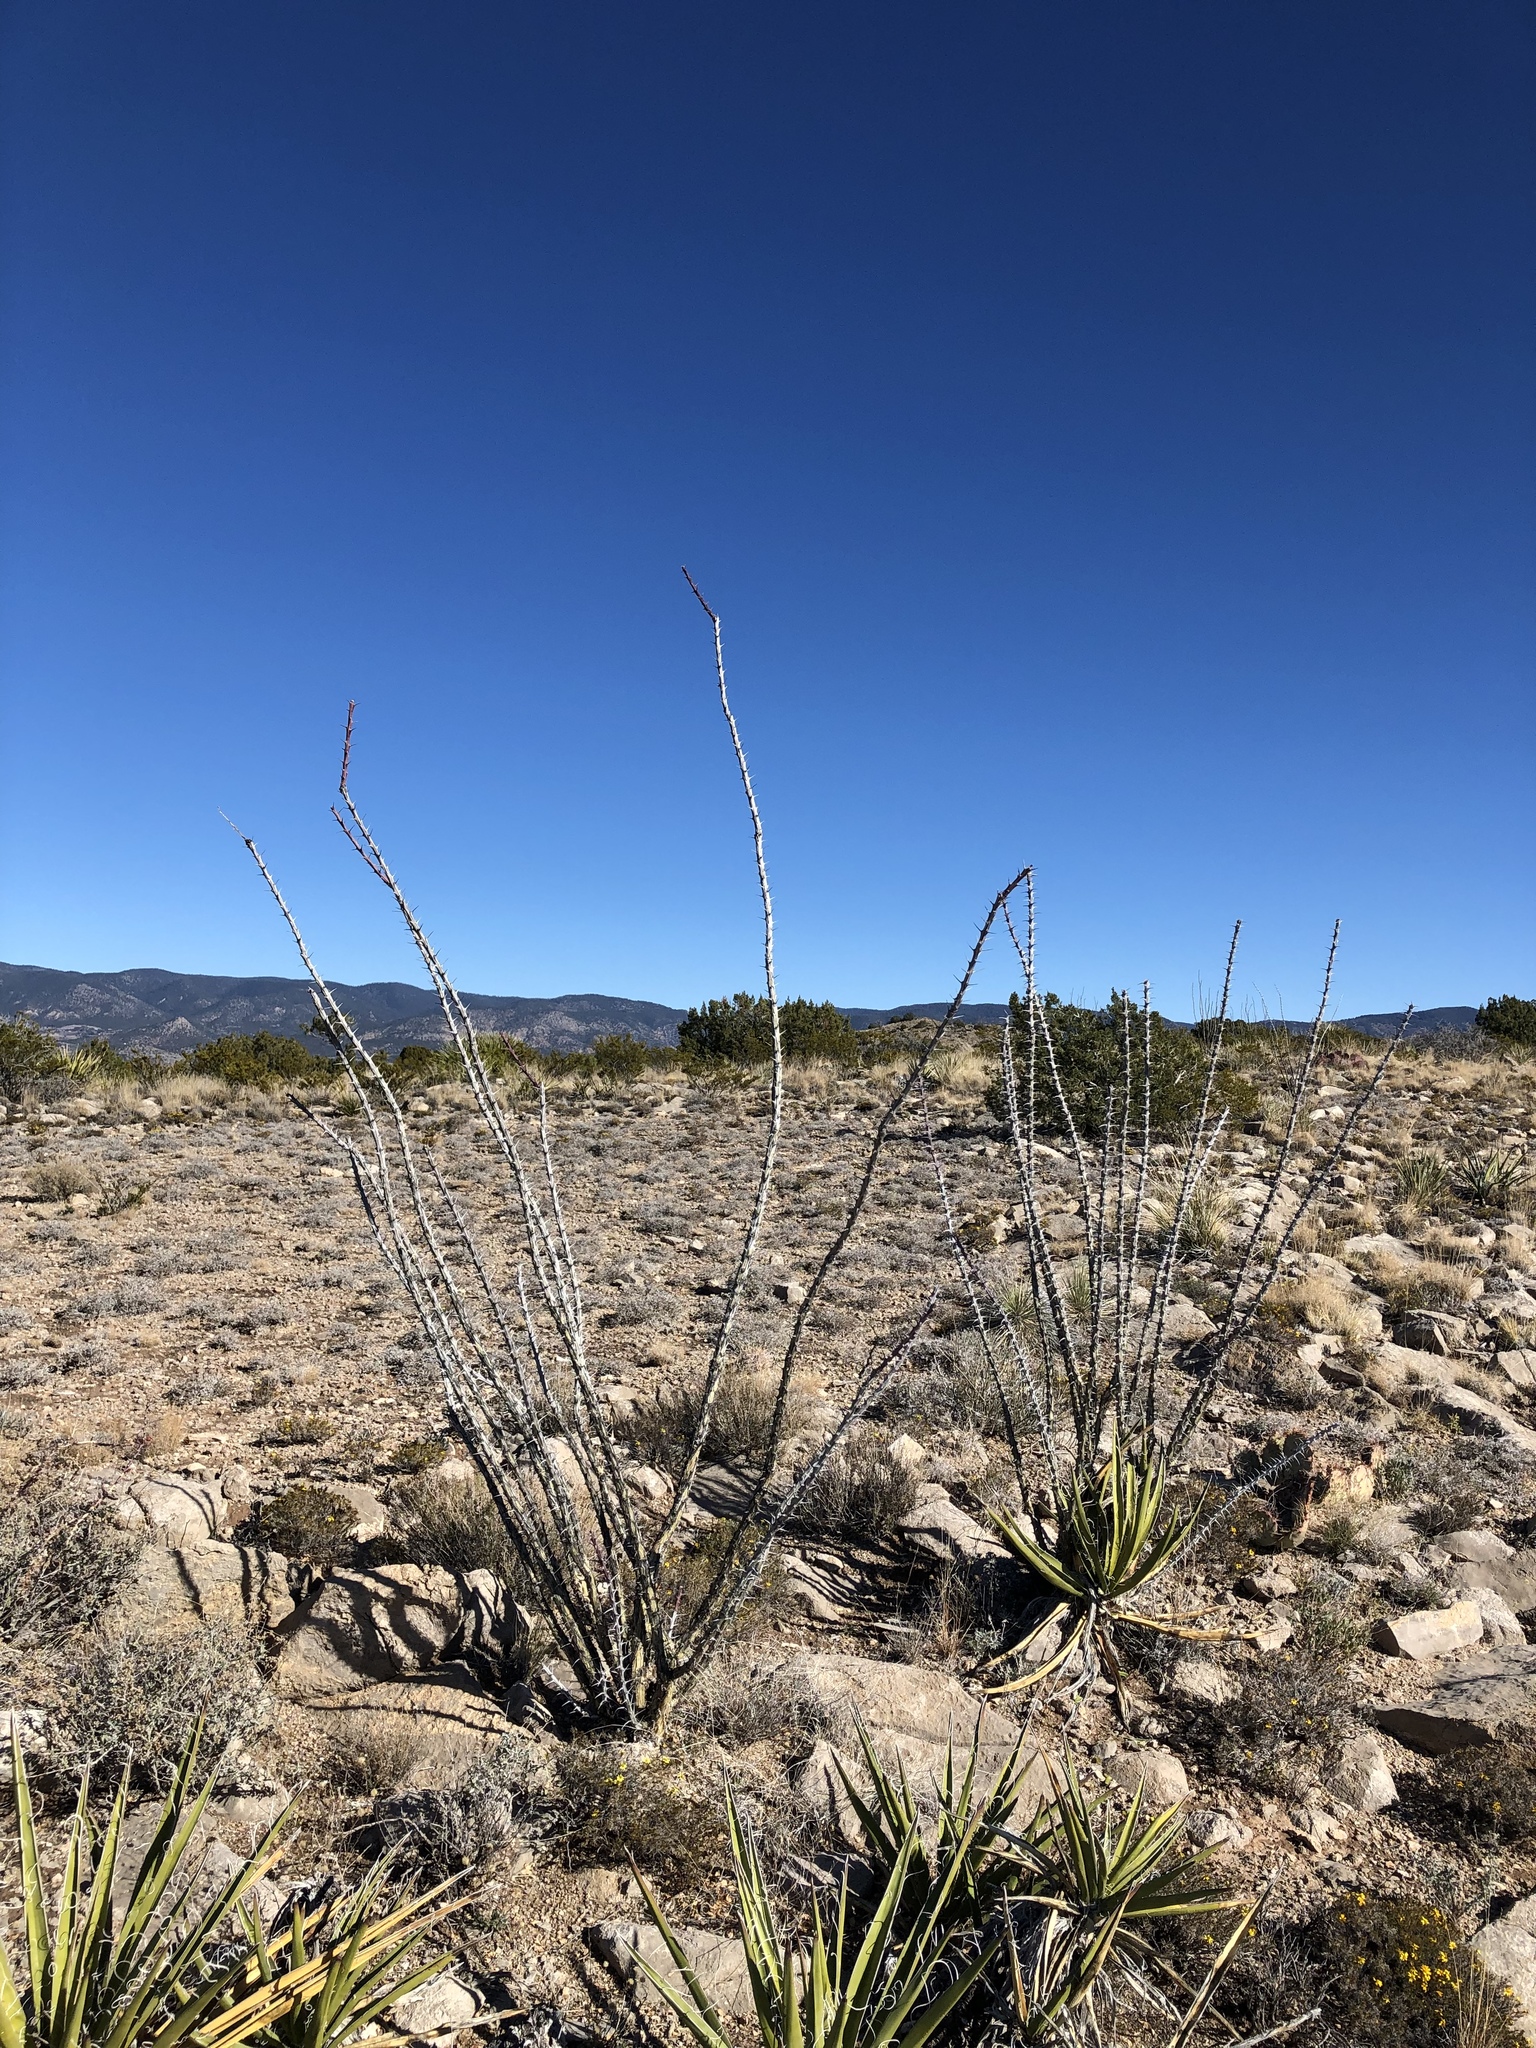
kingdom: Plantae
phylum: Tracheophyta
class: Magnoliopsida
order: Ericales
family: Fouquieriaceae
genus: Fouquieria
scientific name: Fouquieria splendens
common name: Vine-cactus
